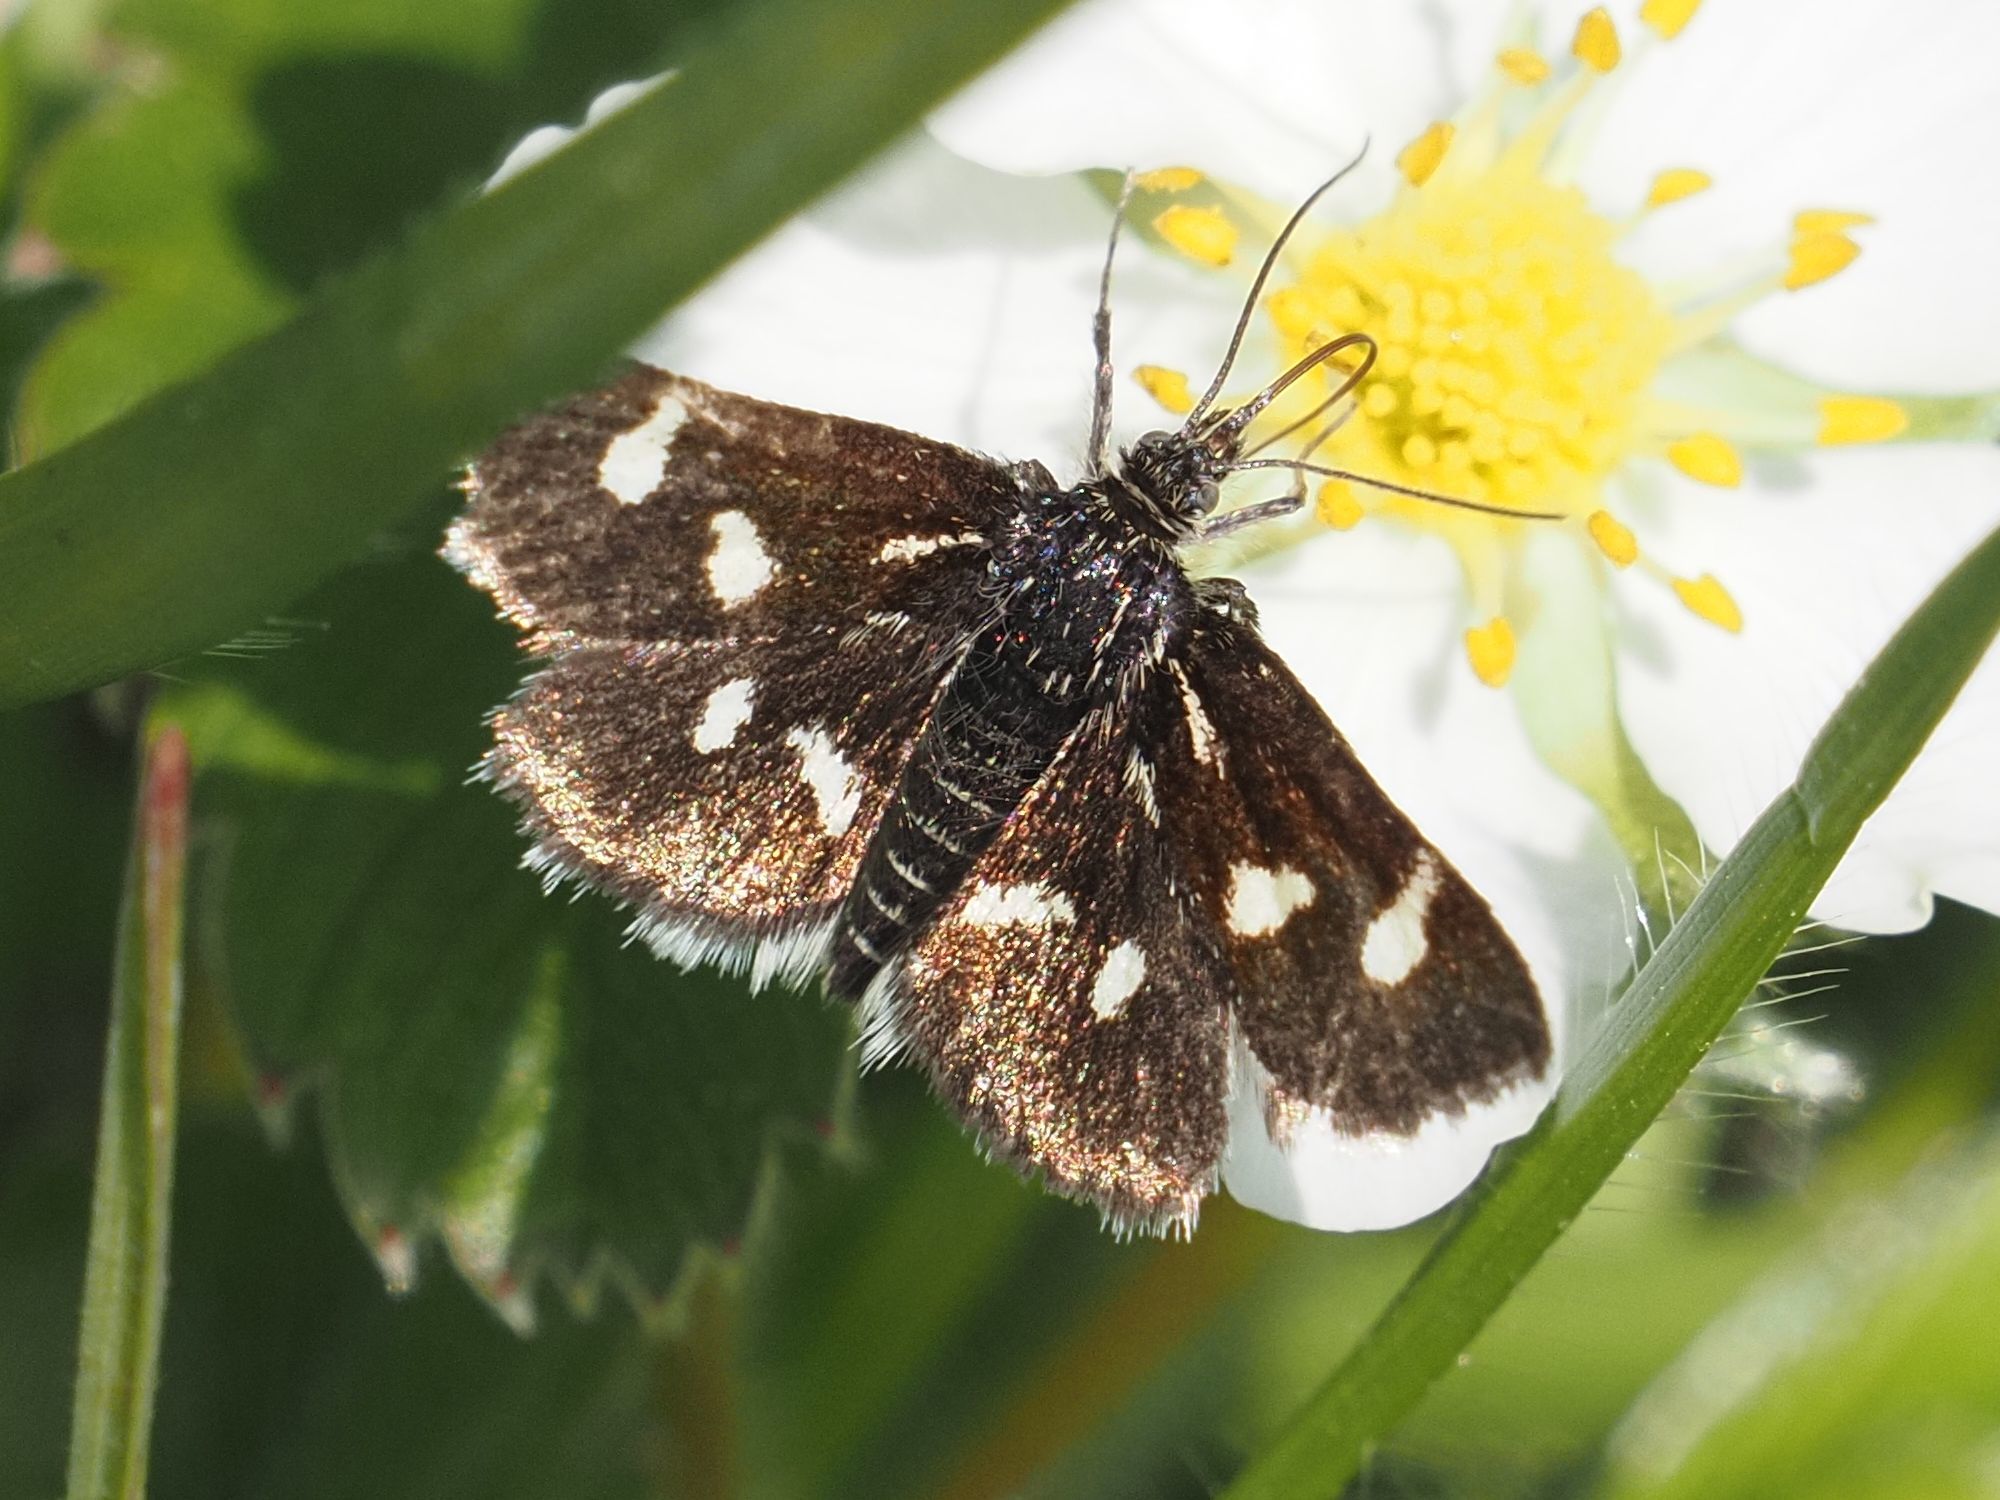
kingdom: Animalia
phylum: Arthropoda
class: Insecta
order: Lepidoptera
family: Crambidae
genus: Eurrhypis
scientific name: Eurrhypis pollinalis
